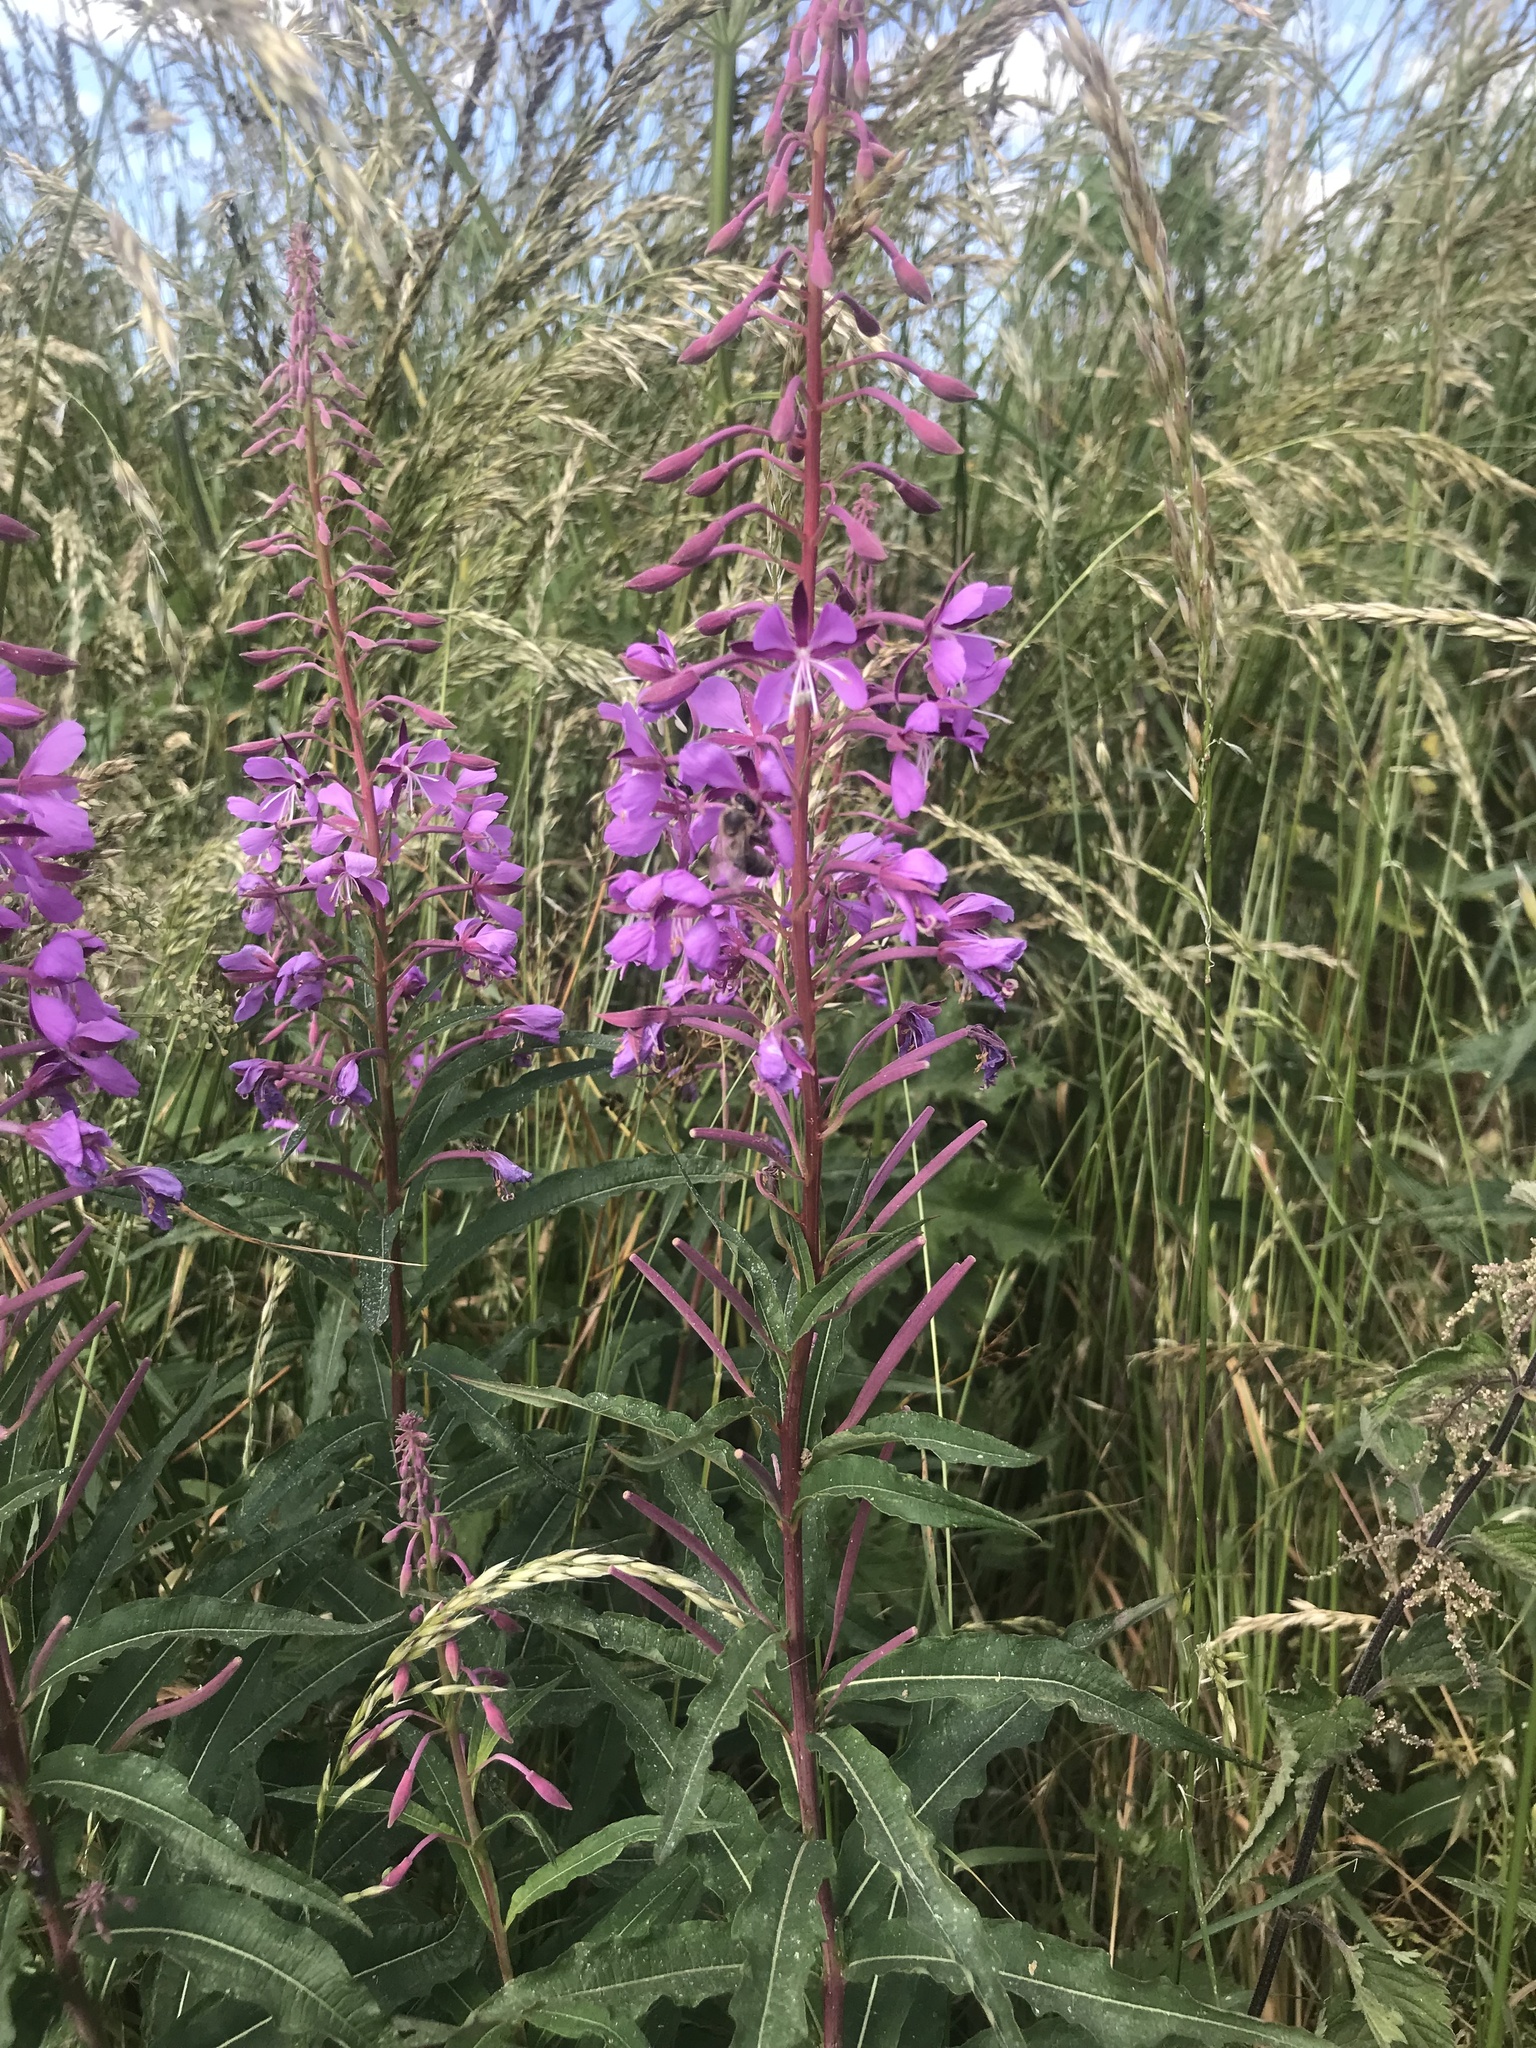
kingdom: Plantae
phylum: Tracheophyta
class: Magnoliopsida
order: Myrtales
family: Onagraceae
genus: Chamaenerion
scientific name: Chamaenerion angustifolium
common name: Fireweed
